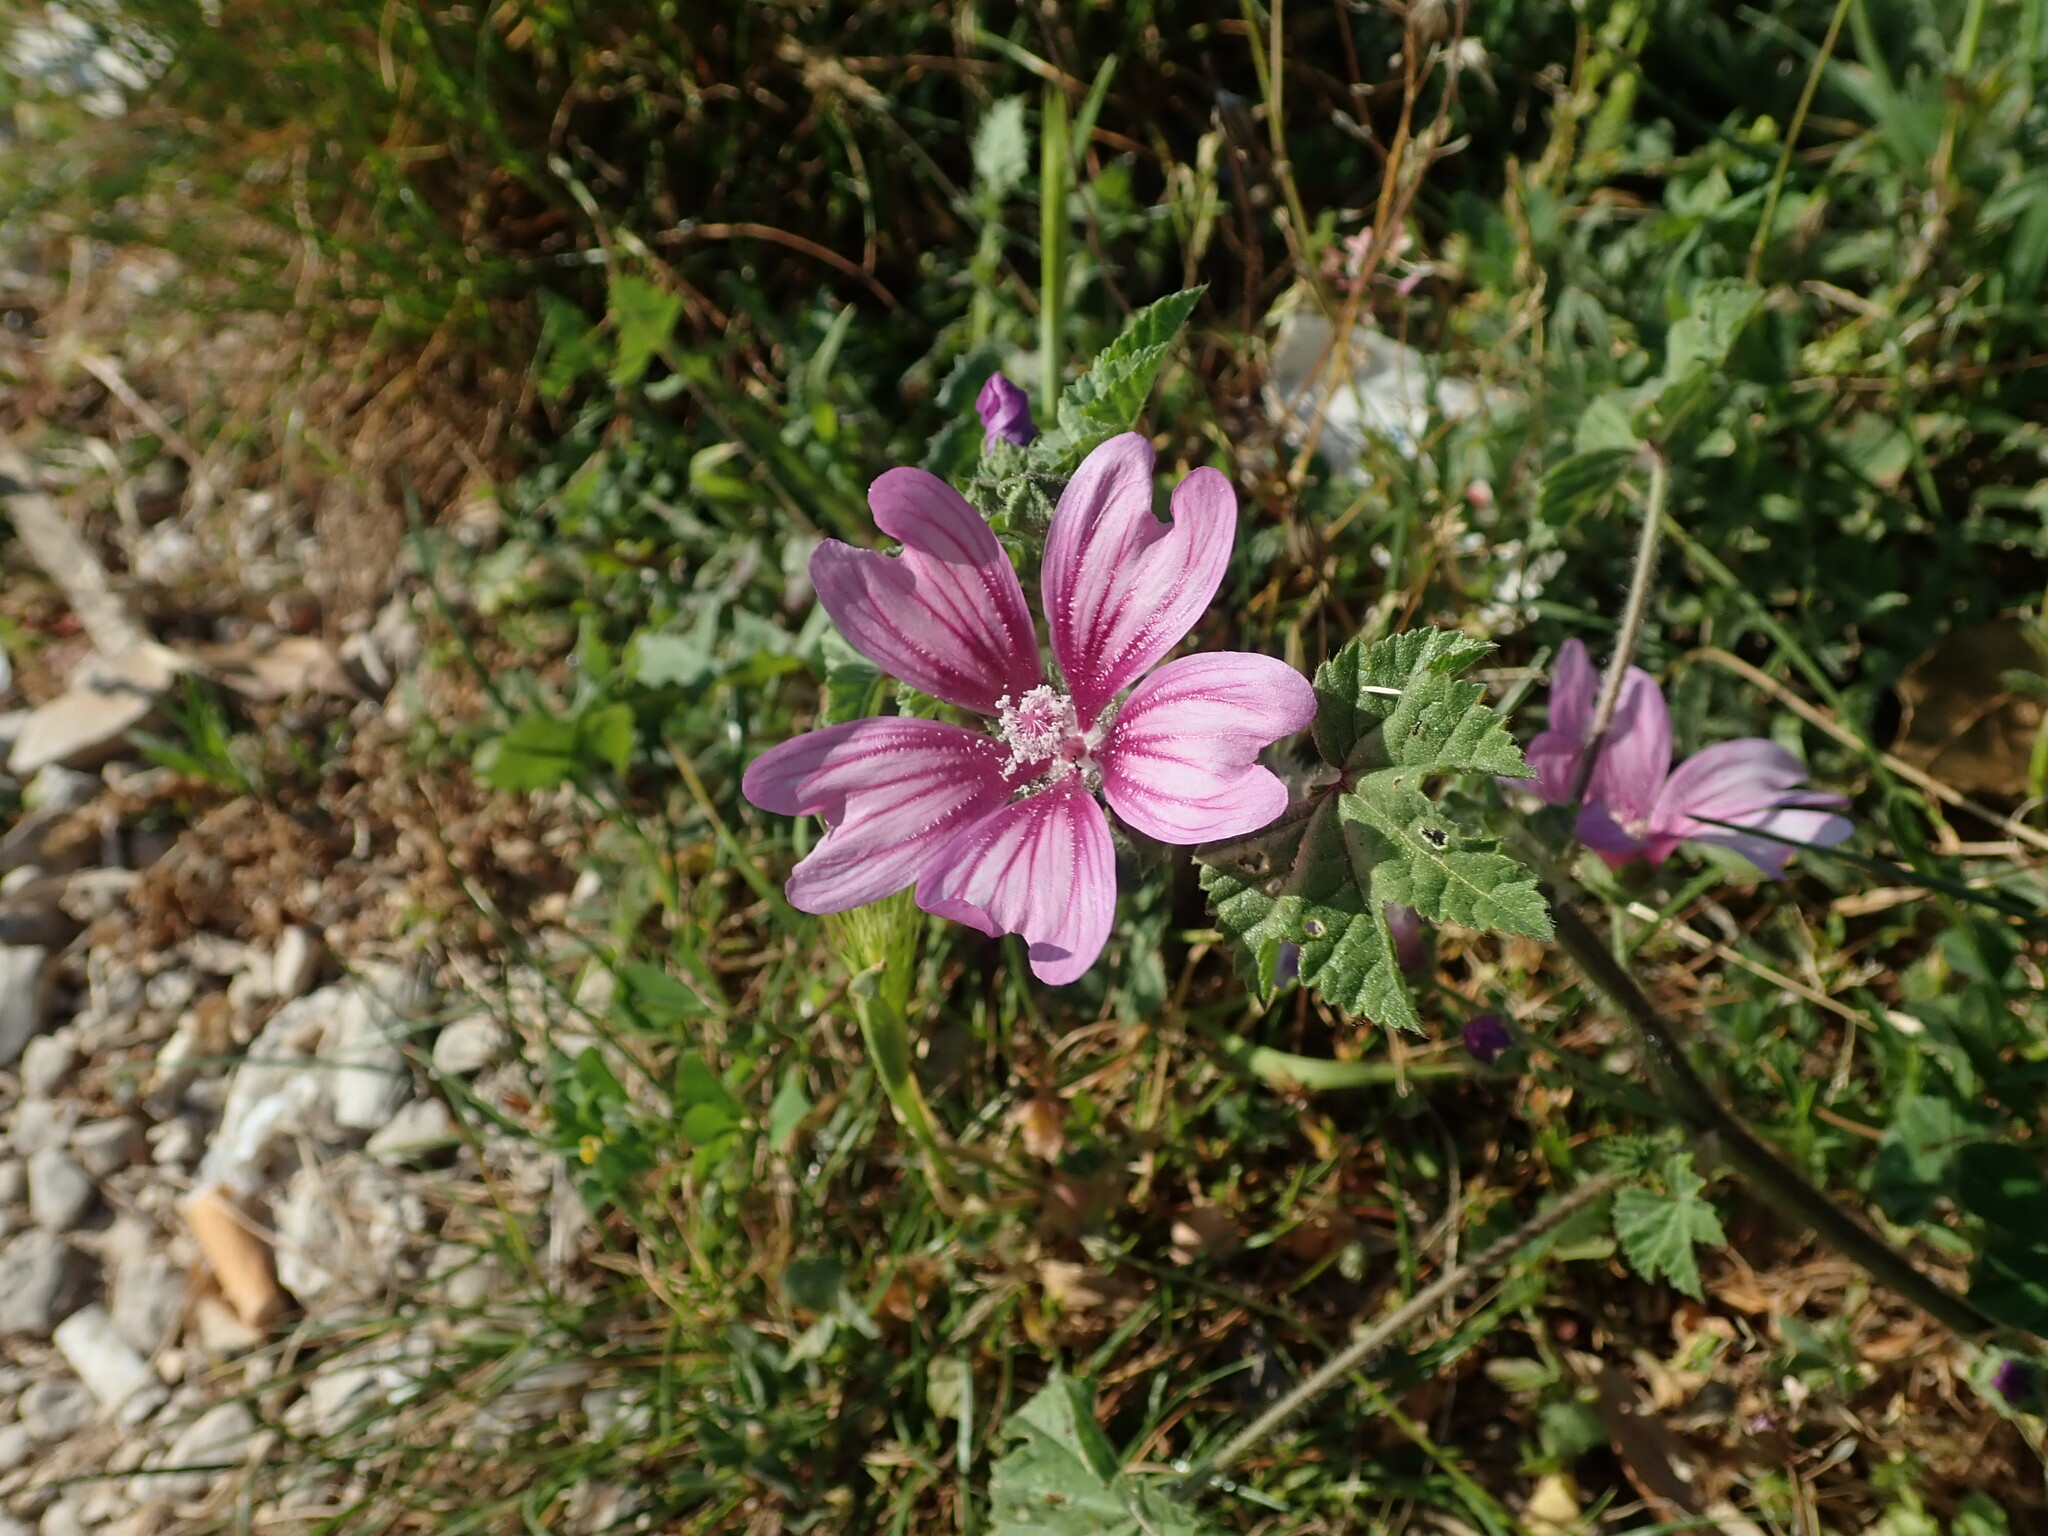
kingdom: Plantae
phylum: Tracheophyta
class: Magnoliopsida
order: Malvales
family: Malvaceae
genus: Malva
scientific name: Malva sylvestris
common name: Common mallow
